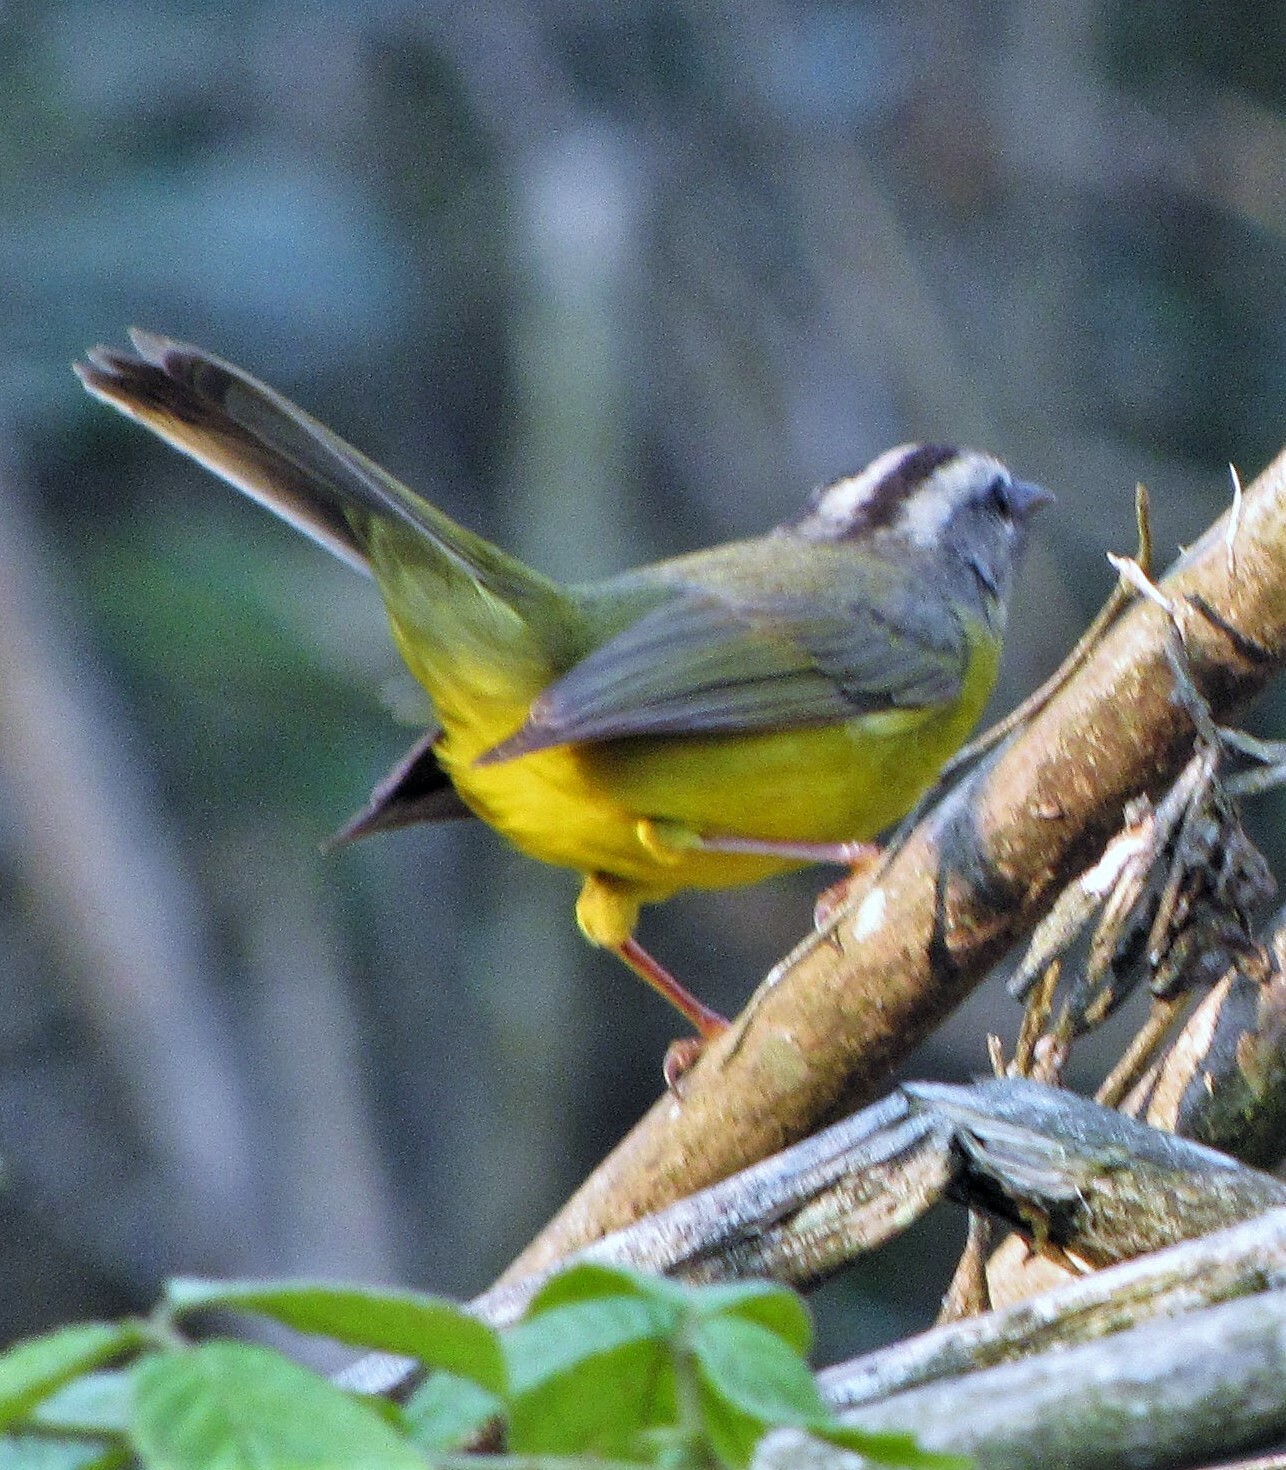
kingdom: Animalia
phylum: Chordata
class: Aves
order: Passeriformes
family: Parulidae
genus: Basileuterus
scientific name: Basileuterus culicivorus
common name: Golden-crowned warbler
